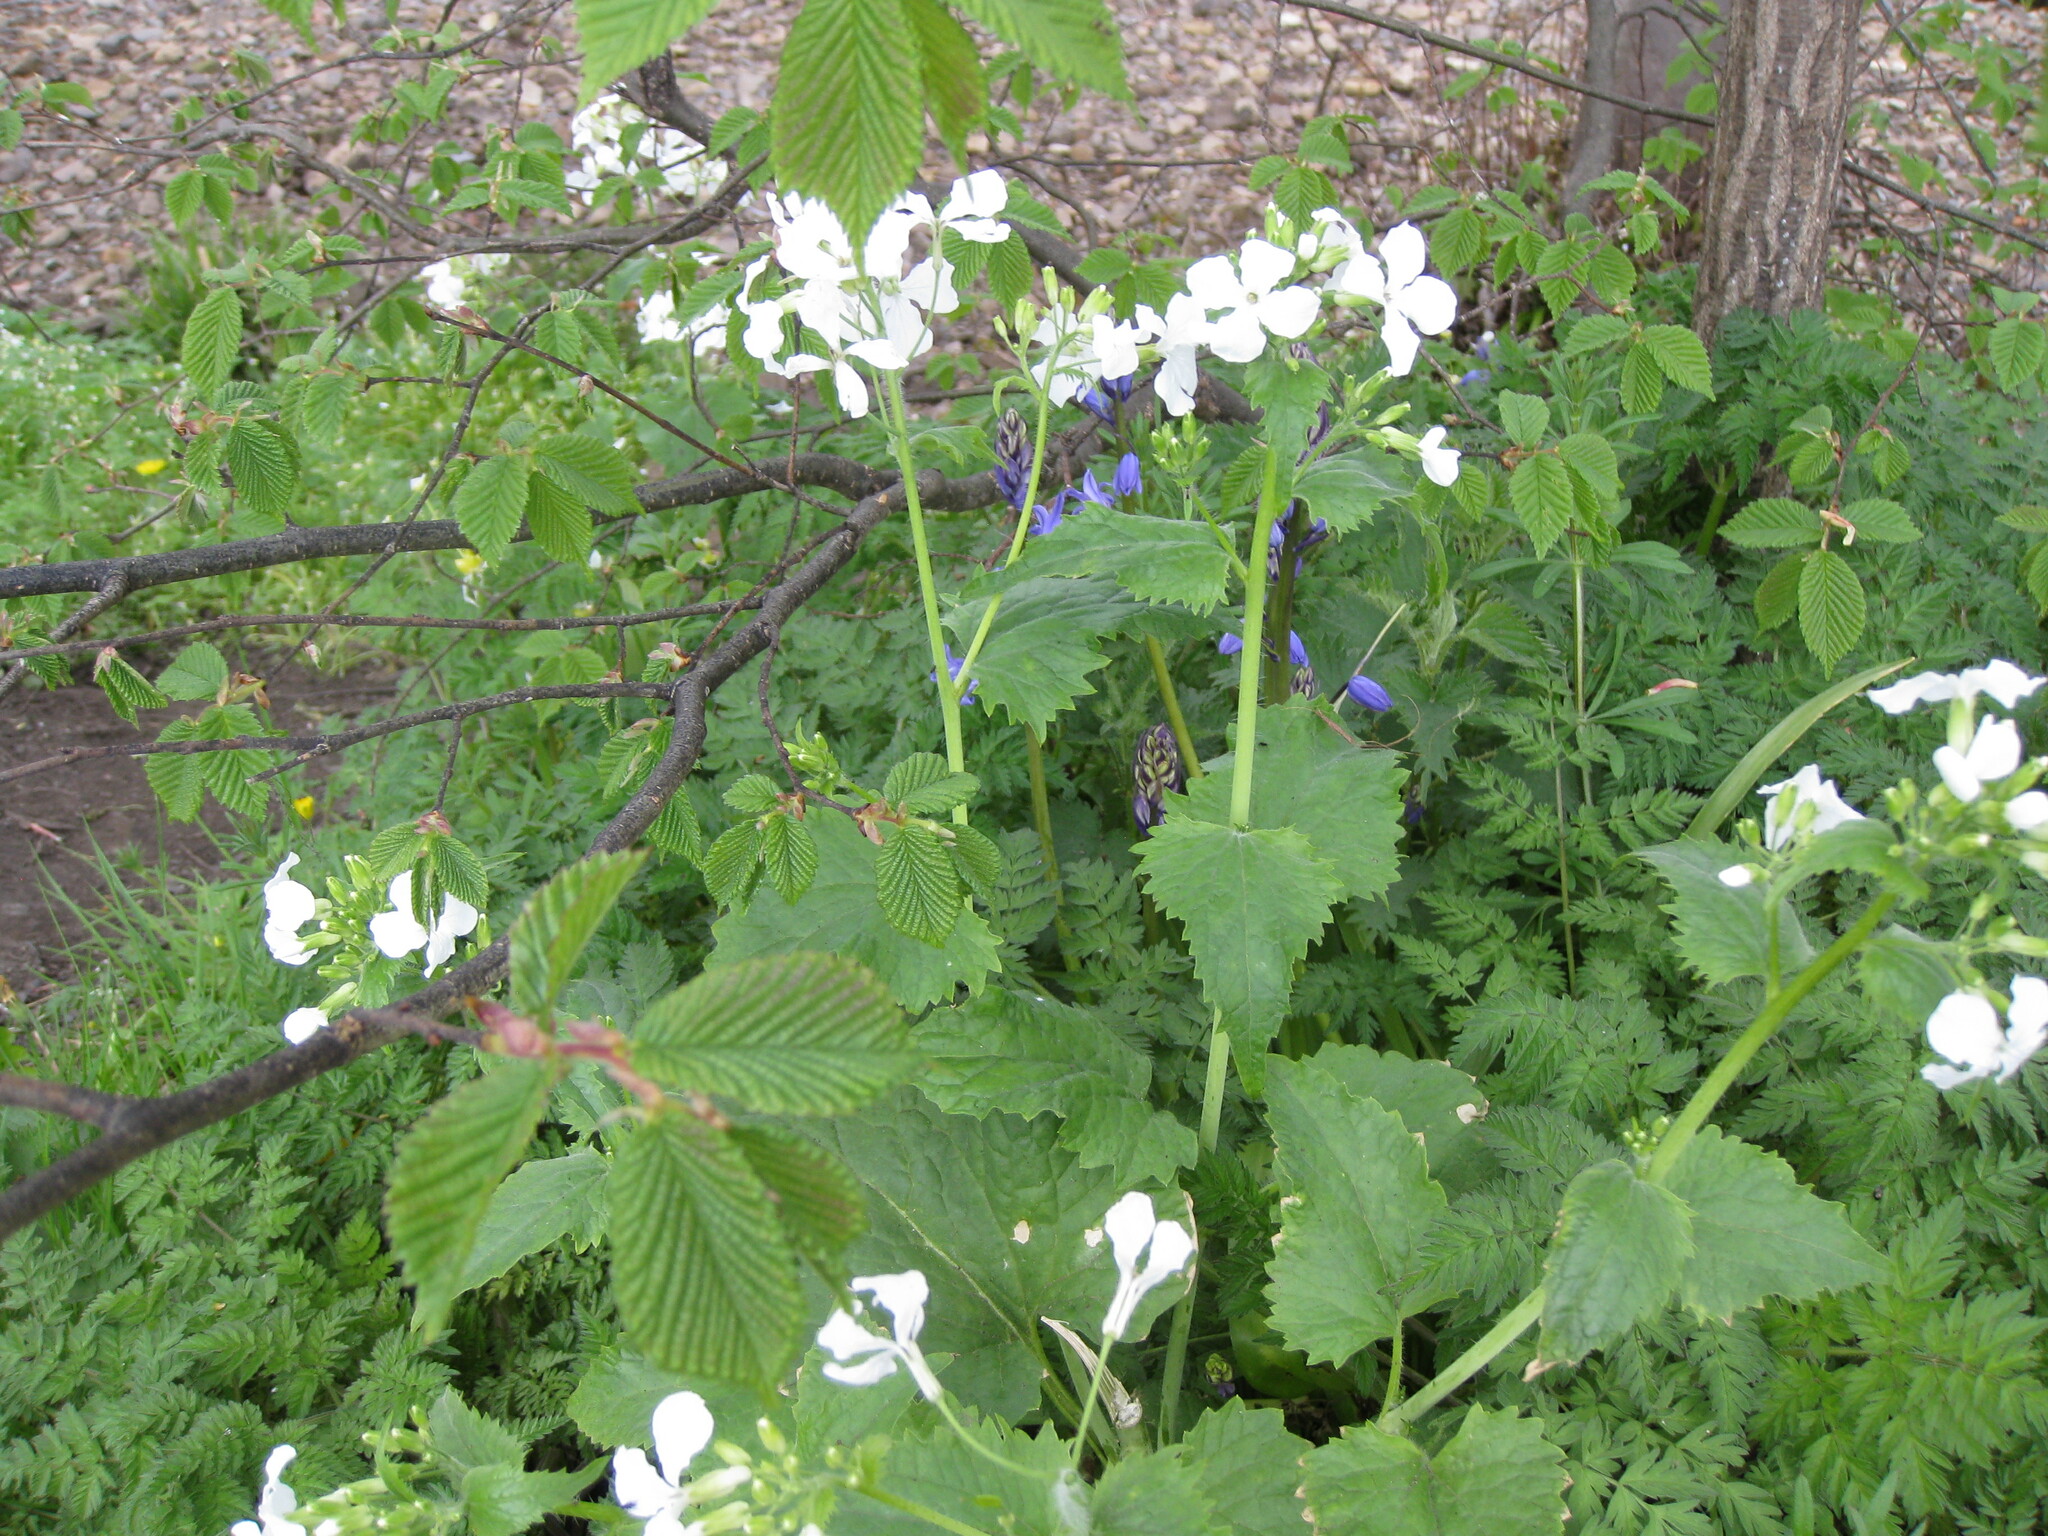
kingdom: Plantae
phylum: Tracheophyta
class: Magnoliopsida
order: Brassicales
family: Brassicaceae
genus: Lunaria
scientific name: Lunaria annua
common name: Honesty
